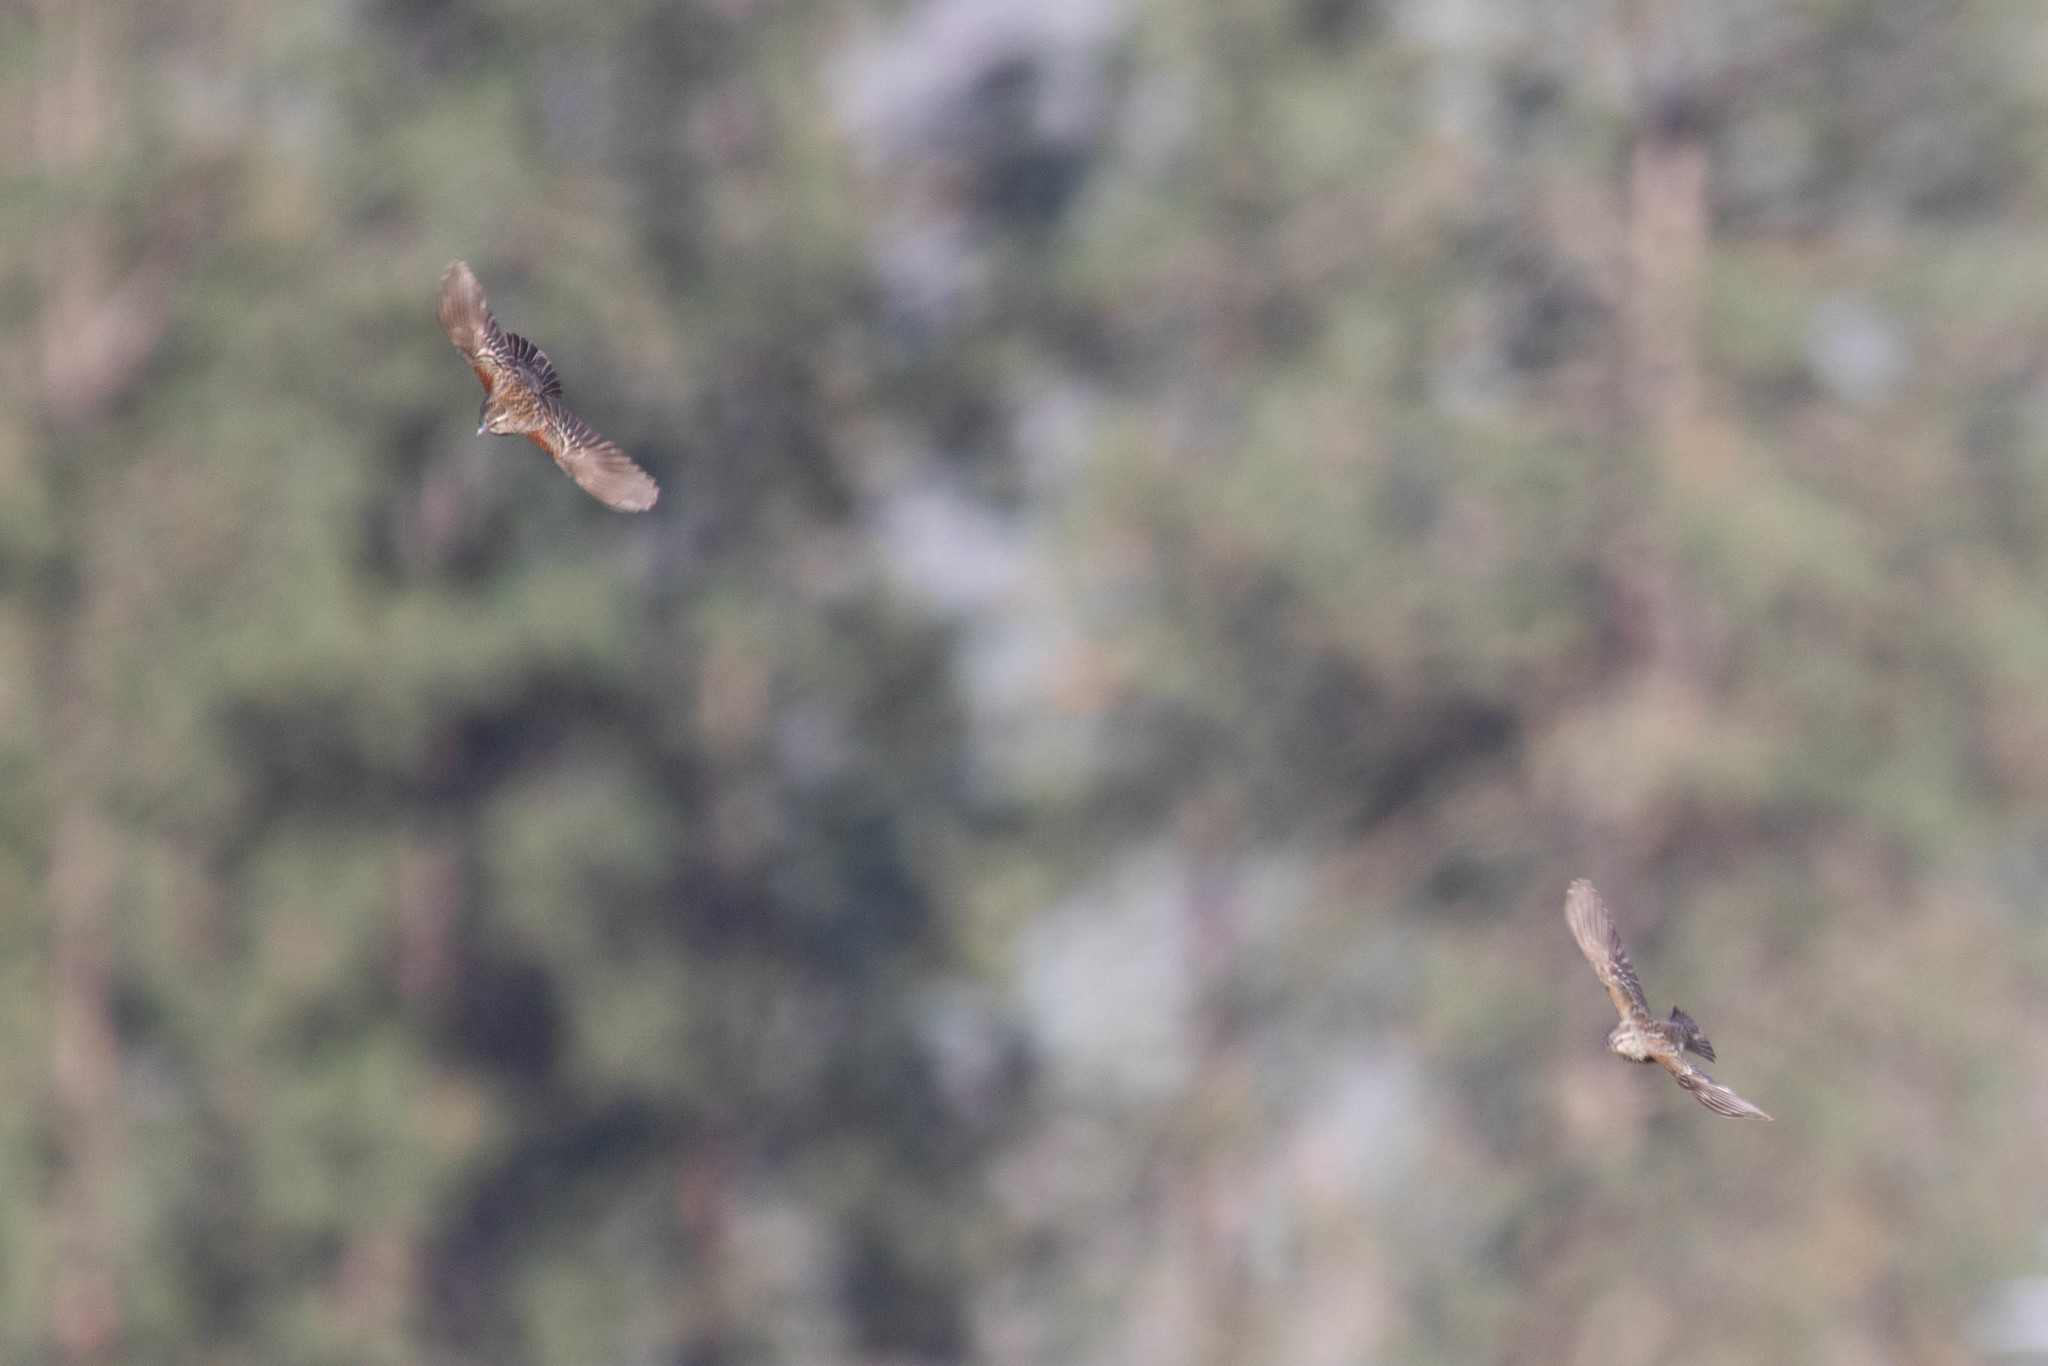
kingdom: Animalia
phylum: Chordata
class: Aves
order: Passeriformes
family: Icteridae
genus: Agelaius
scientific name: Agelaius phoeniceus
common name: Red-winged blackbird
